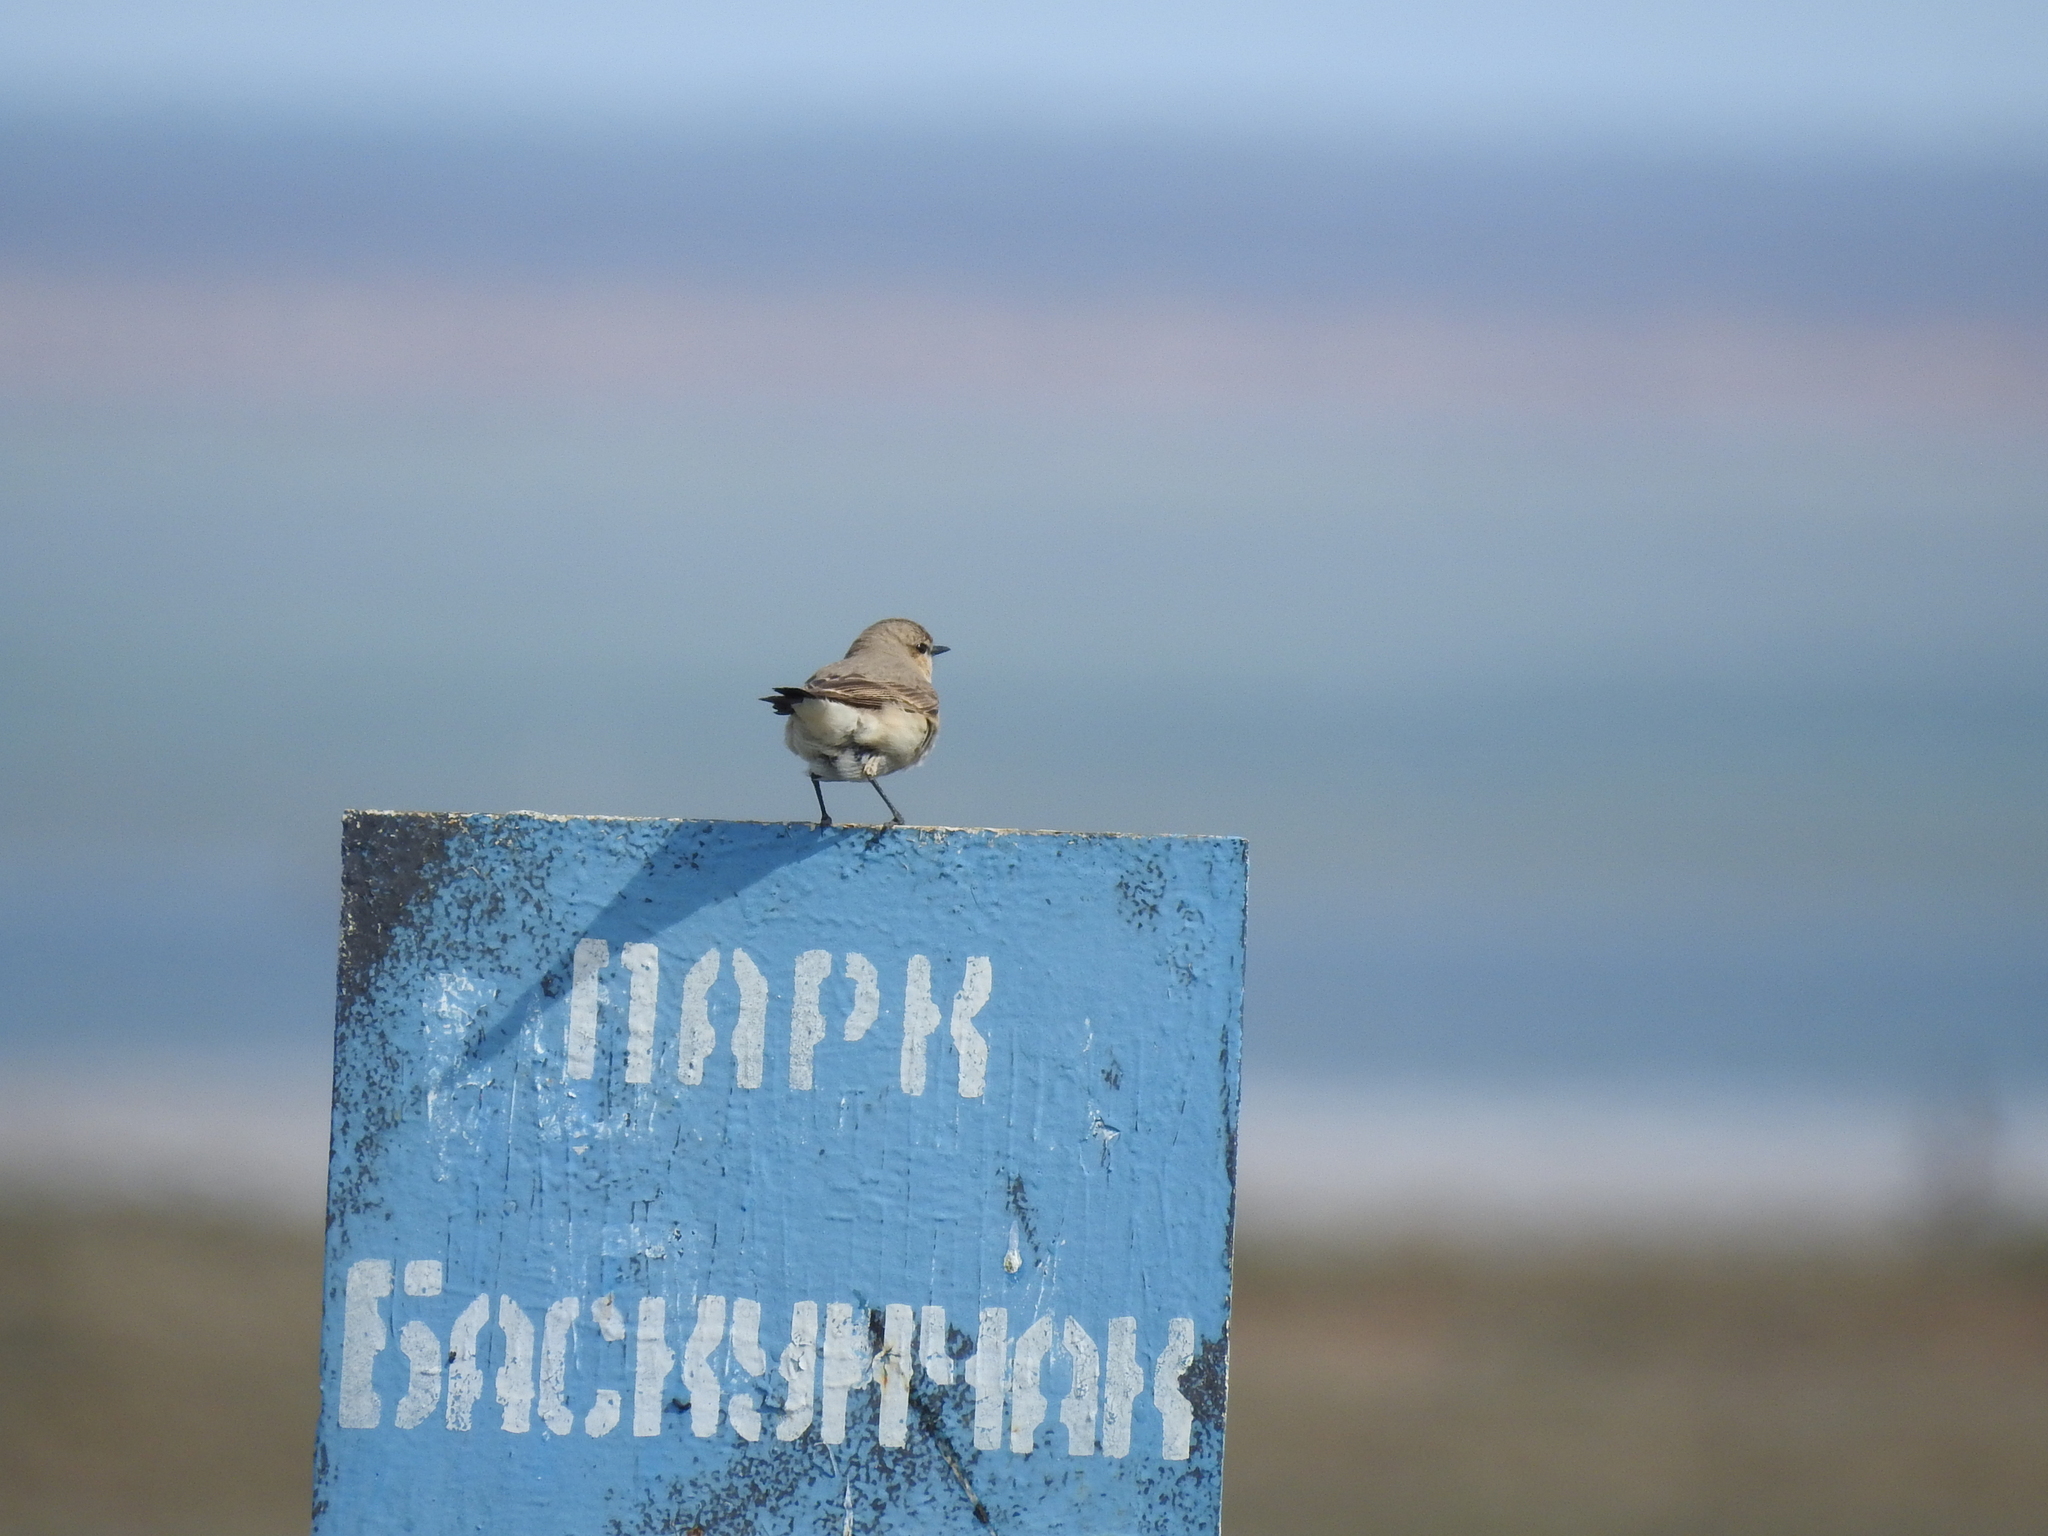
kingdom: Animalia
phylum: Chordata
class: Aves
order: Passeriformes
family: Muscicapidae
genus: Oenanthe
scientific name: Oenanthe isabellina
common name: Isabelline wheatear
